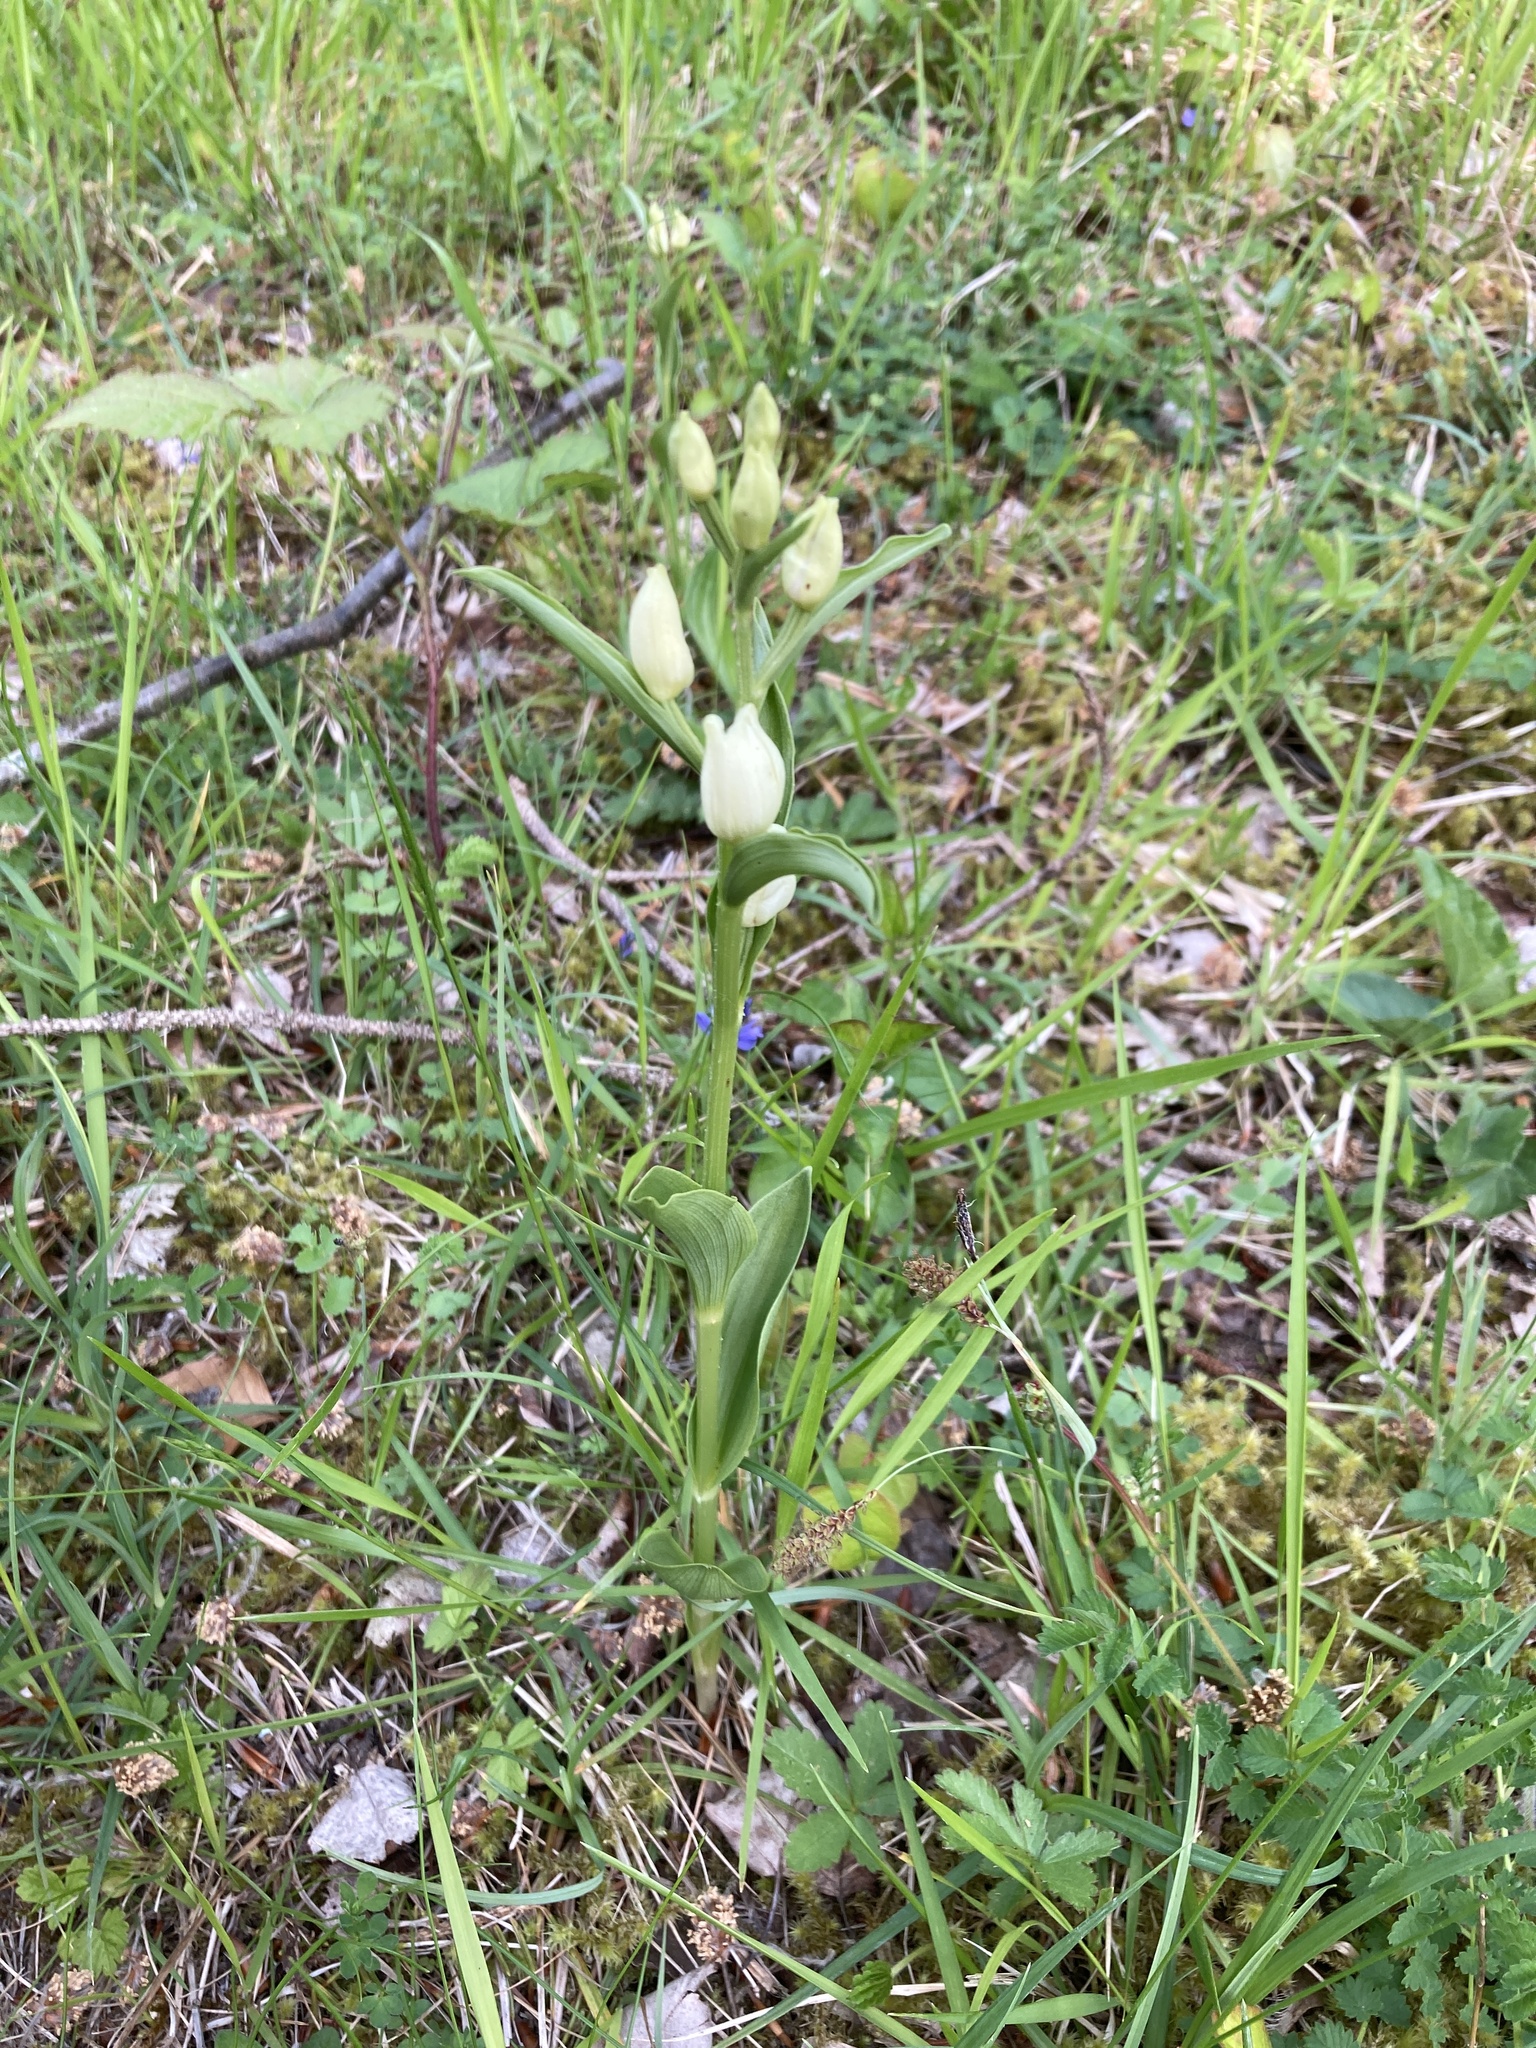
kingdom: Plantae
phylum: Tracheophyta
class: Liliopsida
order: Asparagales
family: Orchidaceae
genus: Cephalanthera
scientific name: Cephalanthera damasonium
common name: White helleborine
